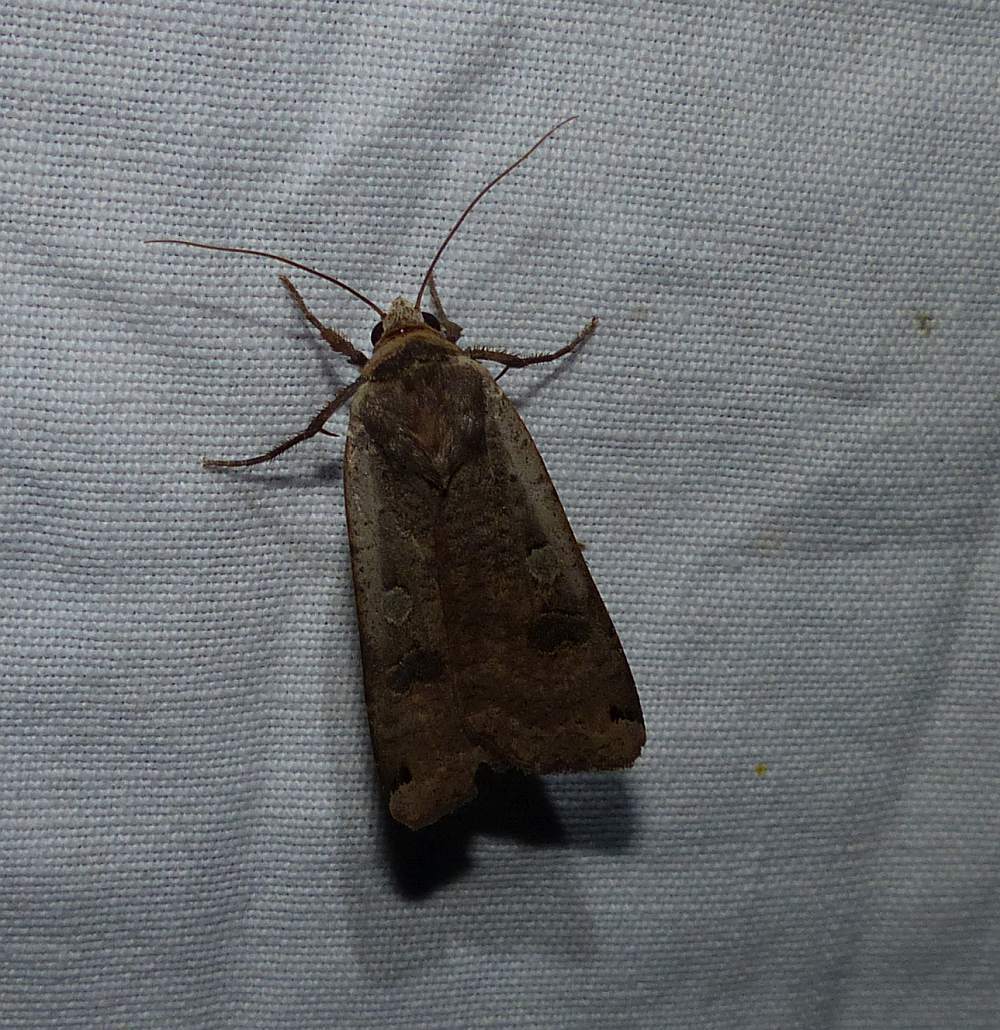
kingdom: Animalia
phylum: Arthropoda
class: Insecta
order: Lepidoptera
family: Noctuidae
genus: Noctua
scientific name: Noctua pronuba
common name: Large yellow underwing
